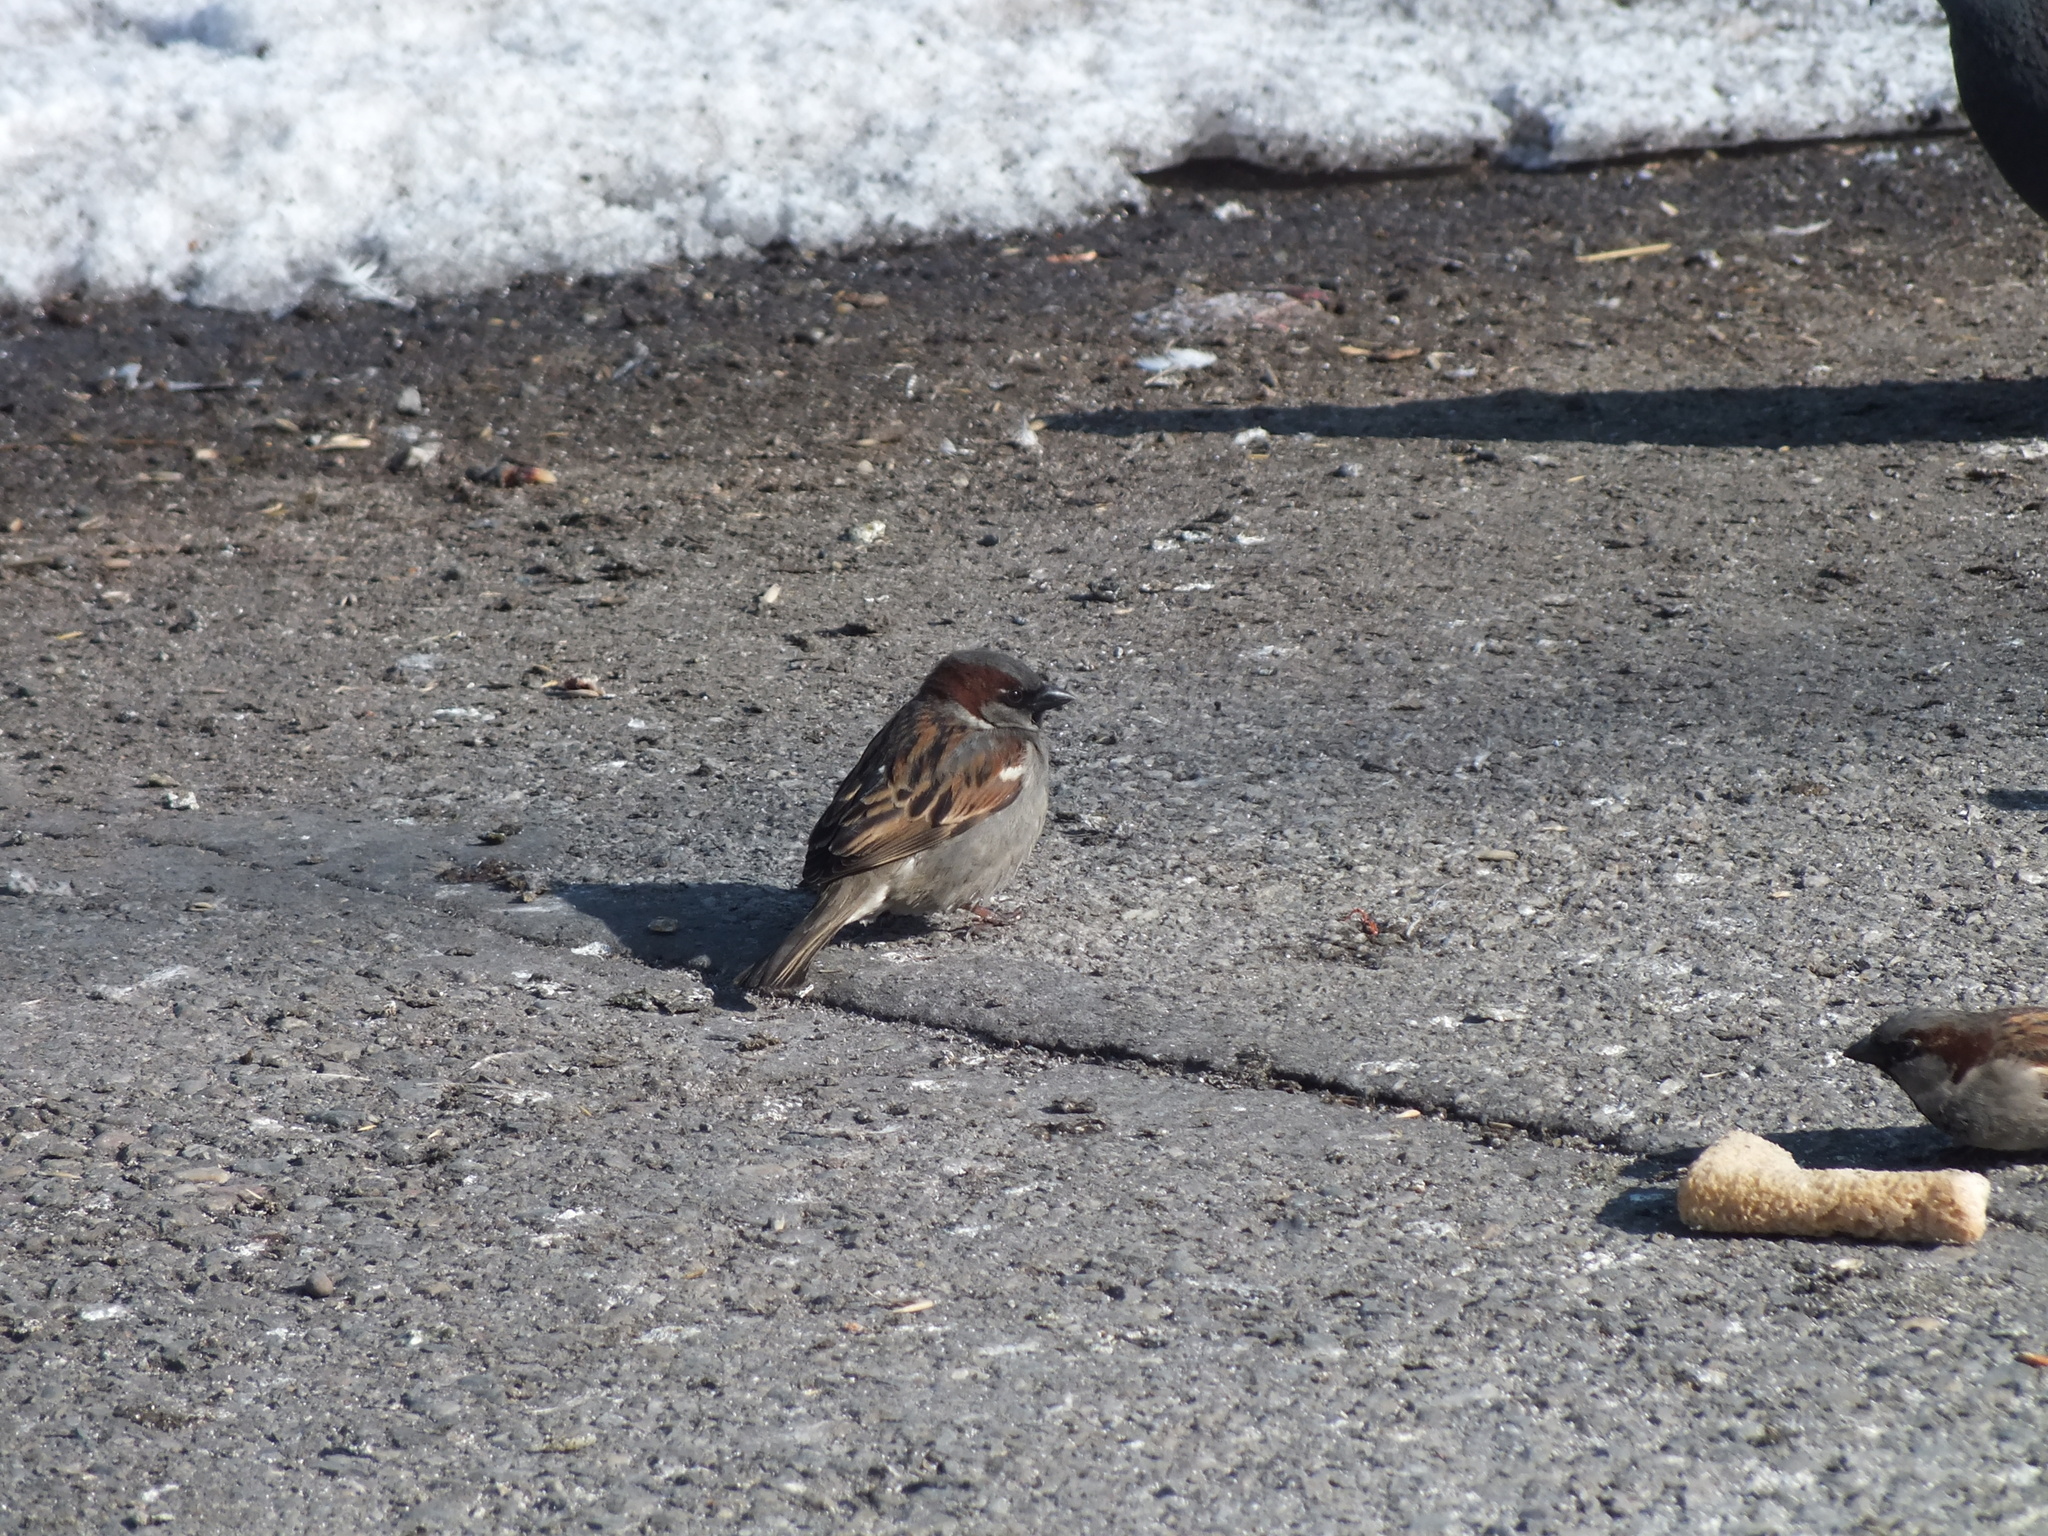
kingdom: Animalia
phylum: Chordata
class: Aves
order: Passeriformes
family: Passeridae
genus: Passer
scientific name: Passer domesticus
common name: House sparrow
